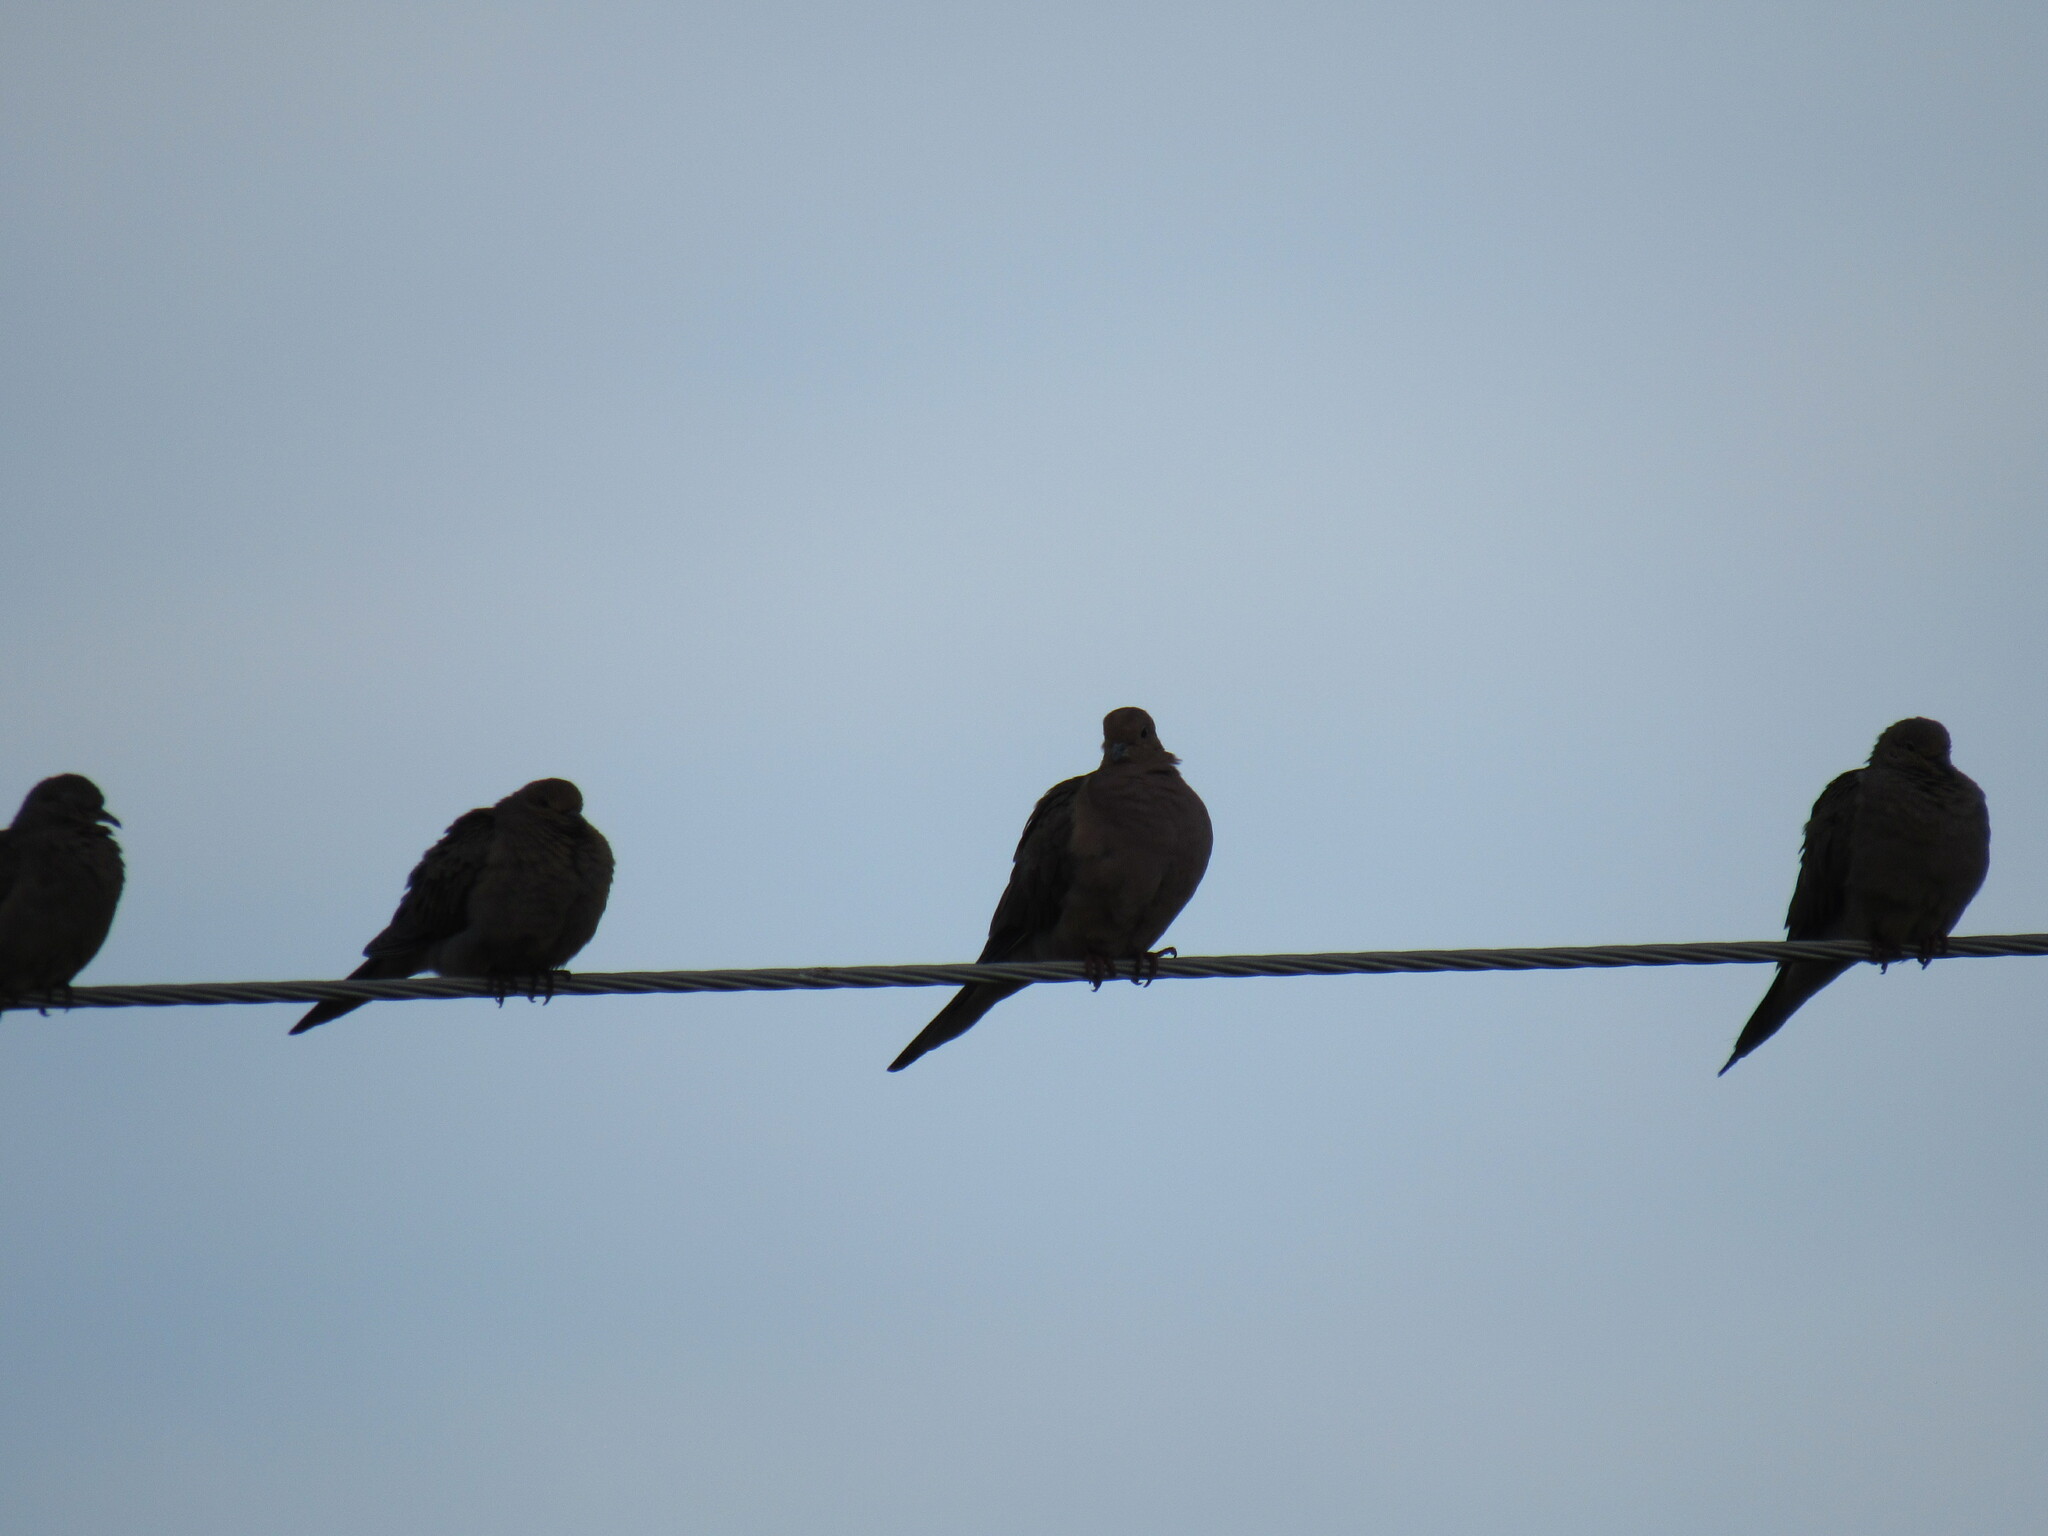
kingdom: Animalia
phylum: Chordata
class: Aves
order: Columbiformes
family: Columbidae
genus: Zenaida
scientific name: Zenaida macroura
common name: Mourning dove
